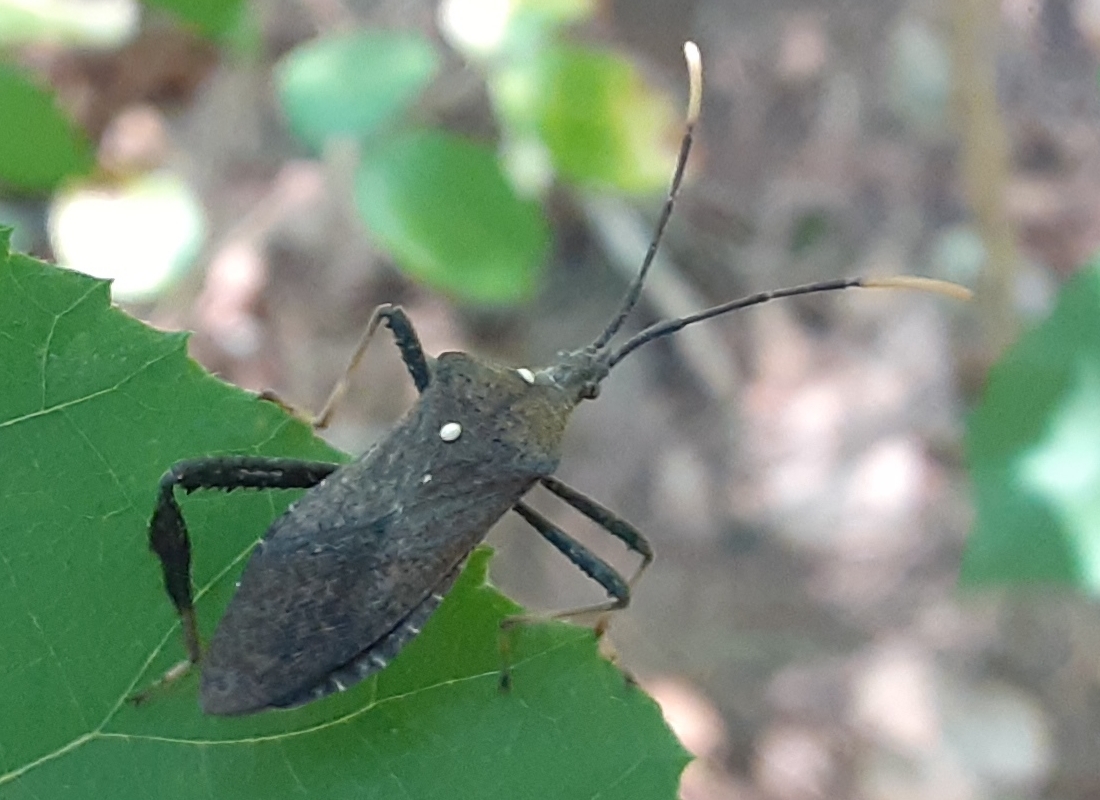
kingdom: Animalia
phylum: Arthropoda
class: Insecta
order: Hemiptera
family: Coreidae
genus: Acanthocephala
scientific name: Acanthocephala terminalis
